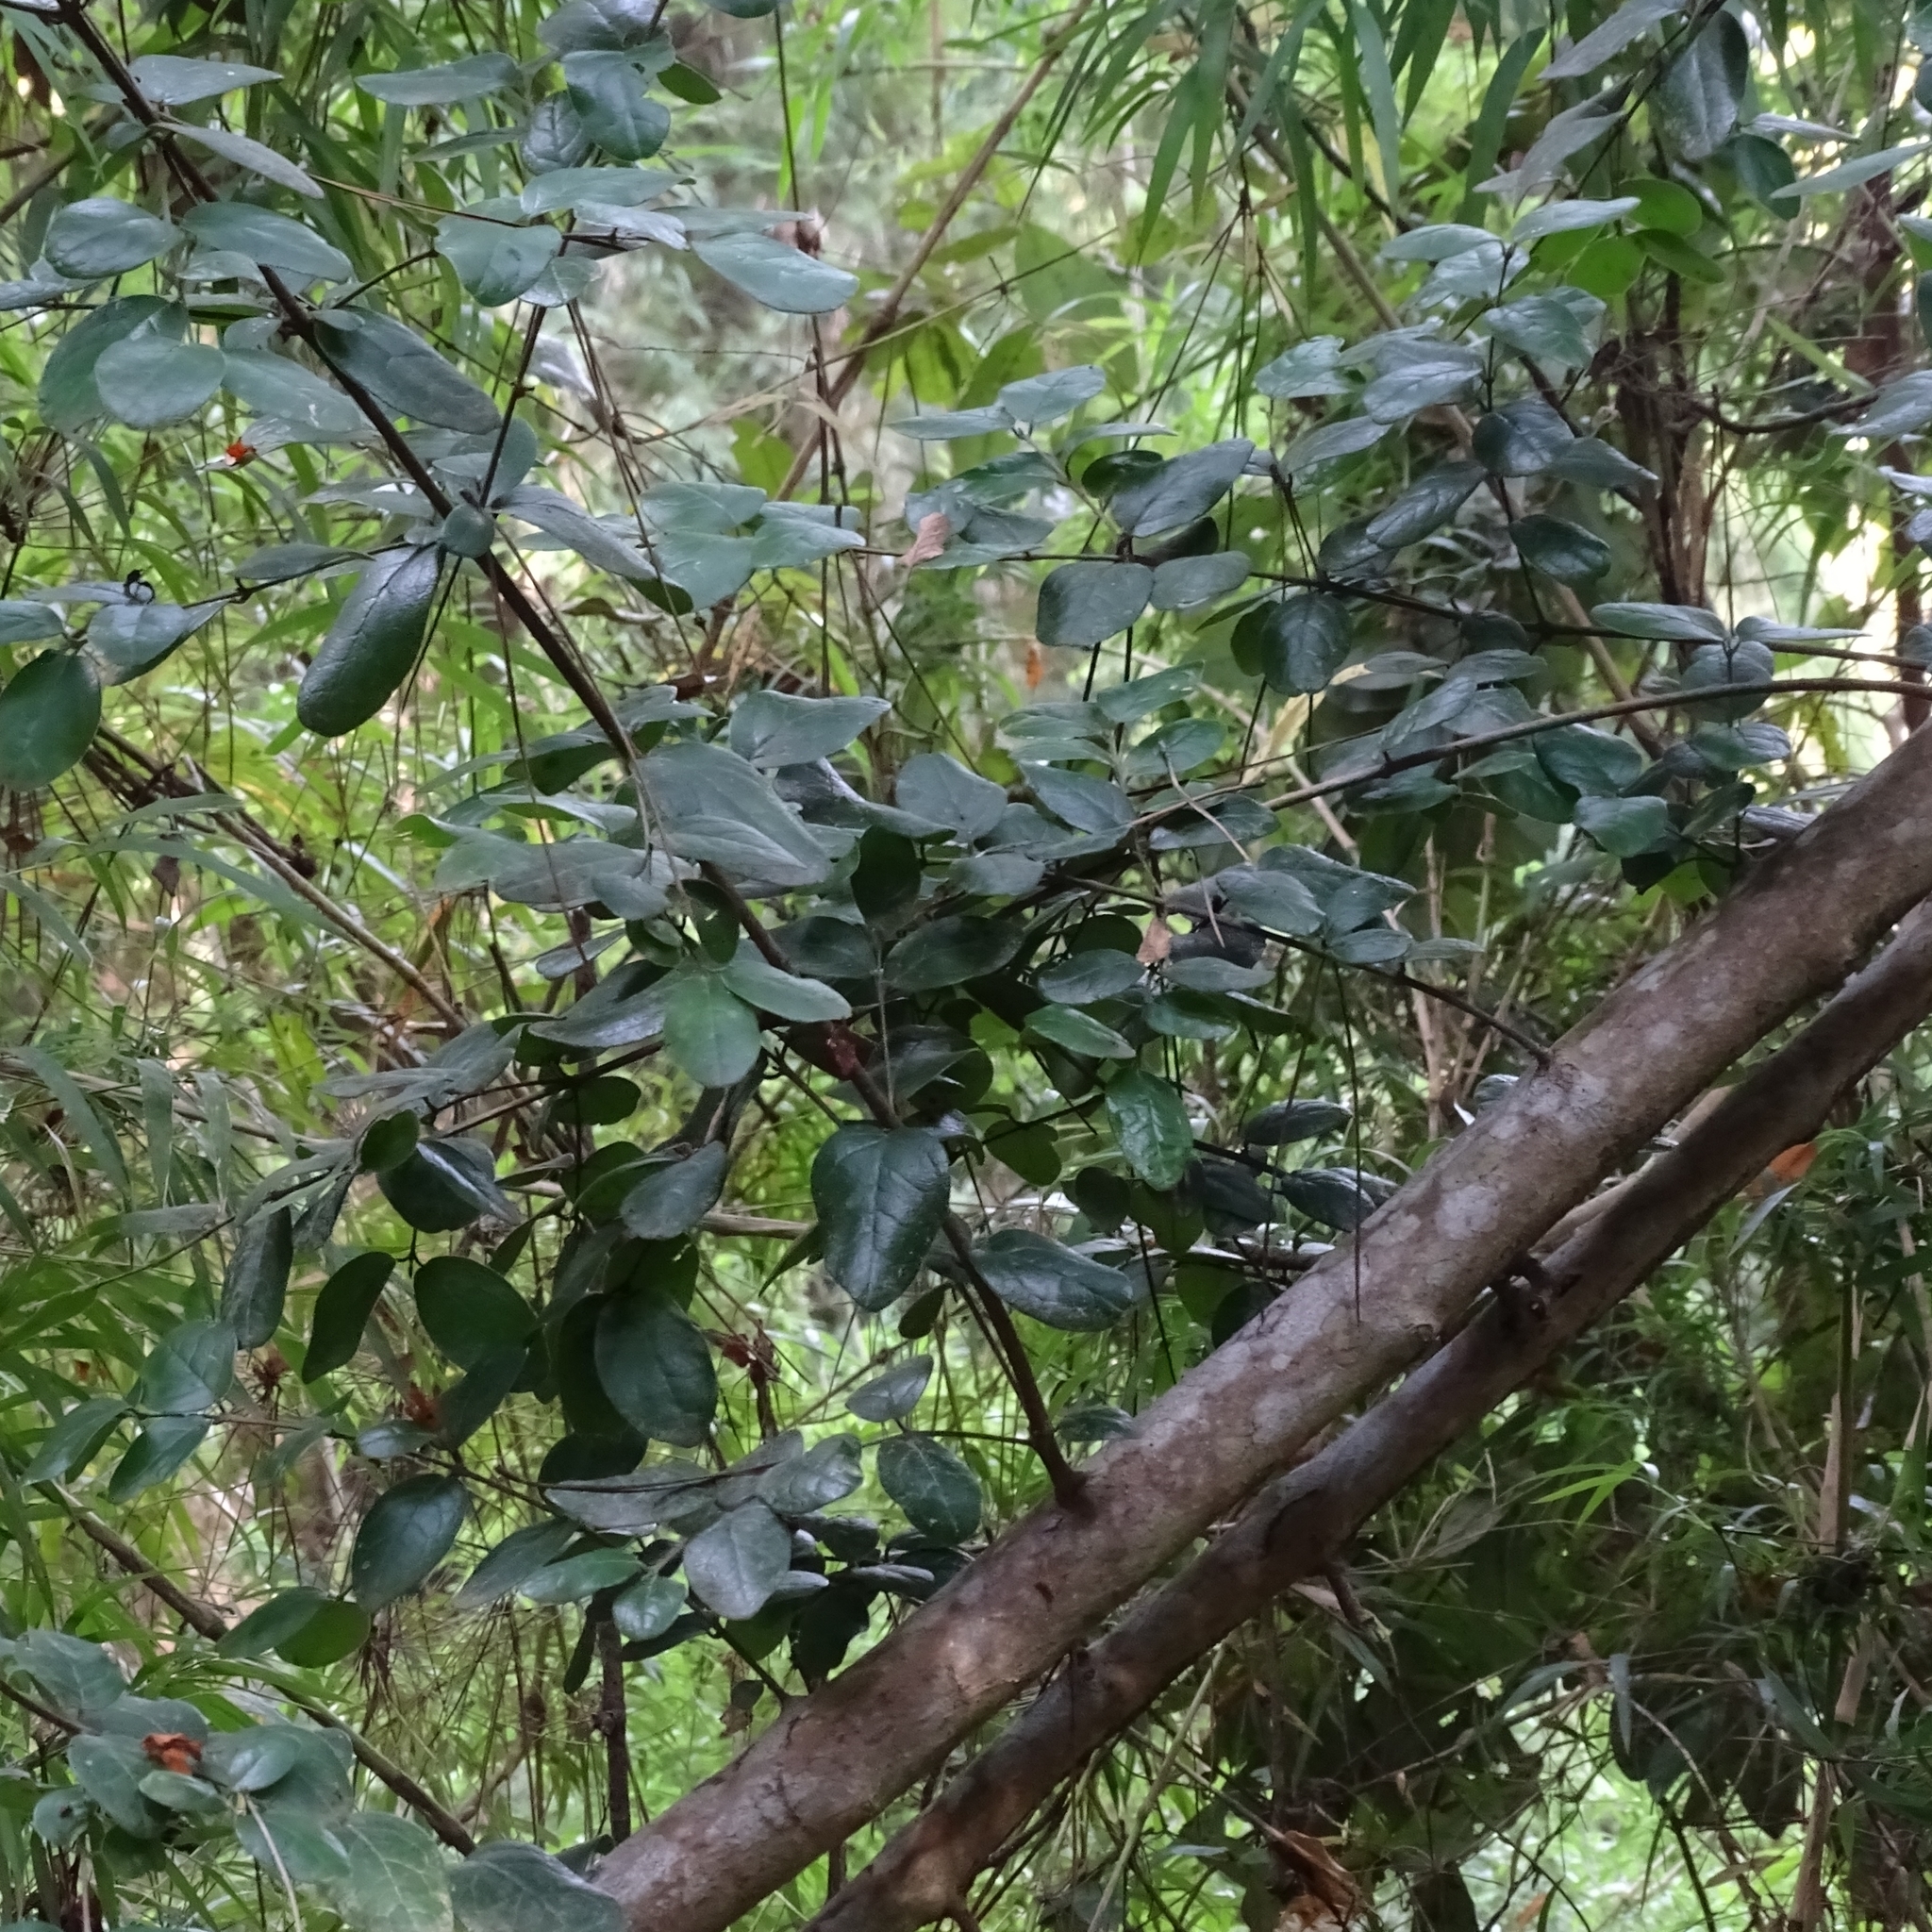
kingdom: Plantae
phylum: Tracheophyta
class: Magnoliopsida
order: Laurales
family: Monimiaceae
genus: Peumus
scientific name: Peumus boldus
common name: Boldo
